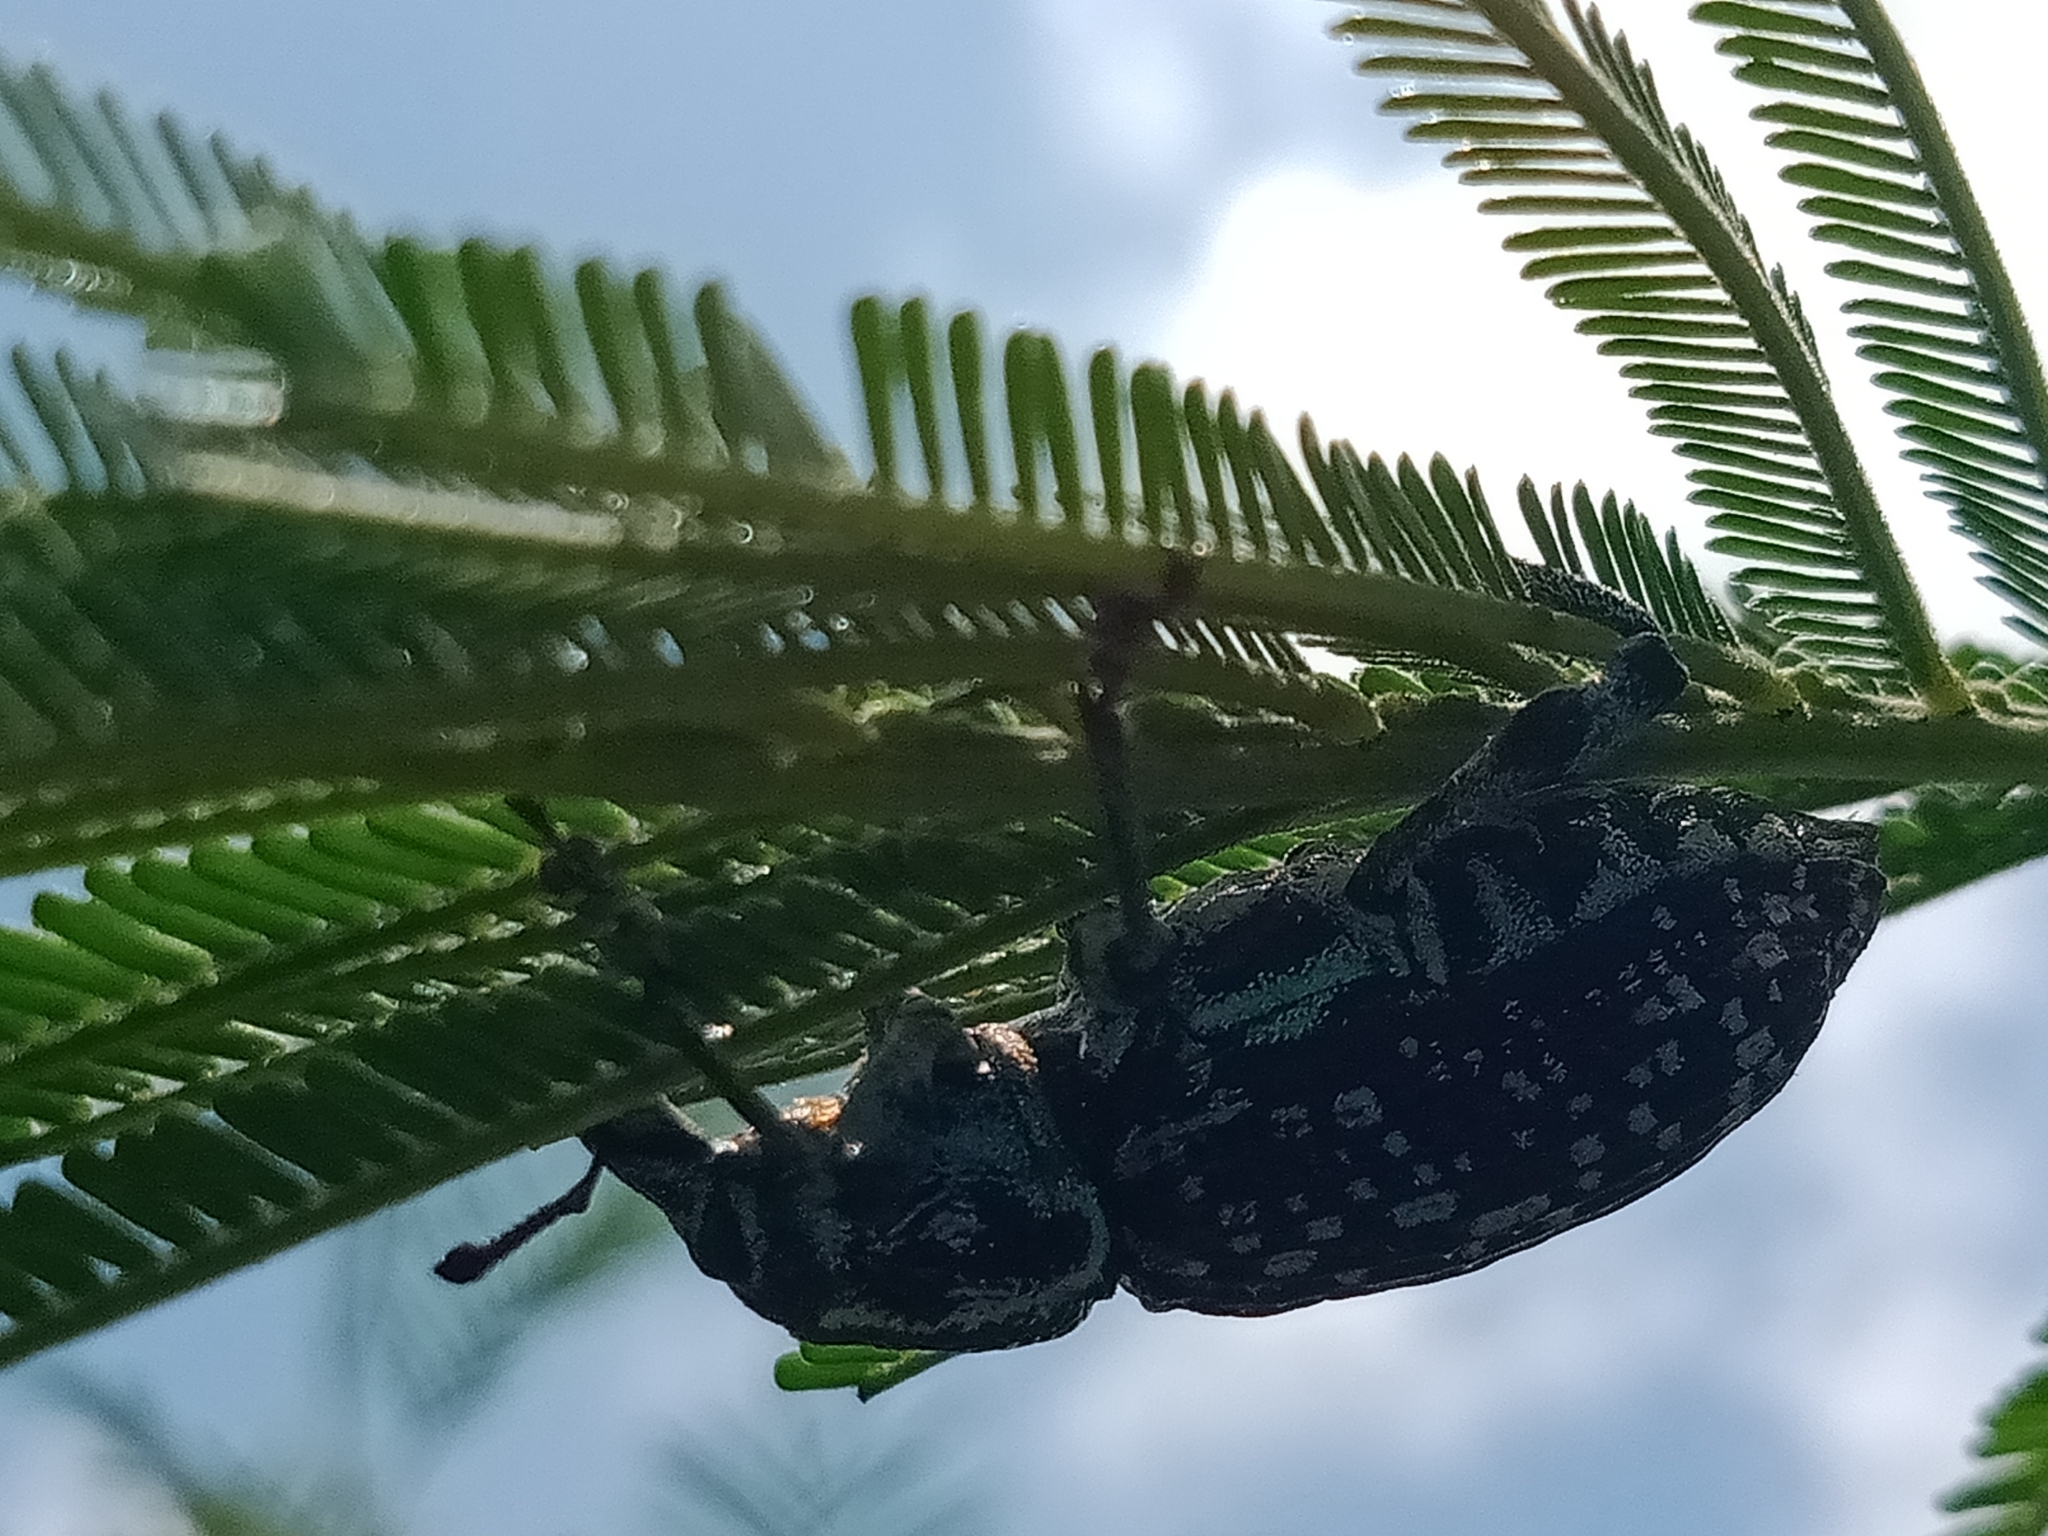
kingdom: Animalia
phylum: Arthropoda
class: Insecta
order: Coleoptera
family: Curculionidae
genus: Chrysolopus
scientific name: Chrysolopus spectabilis
